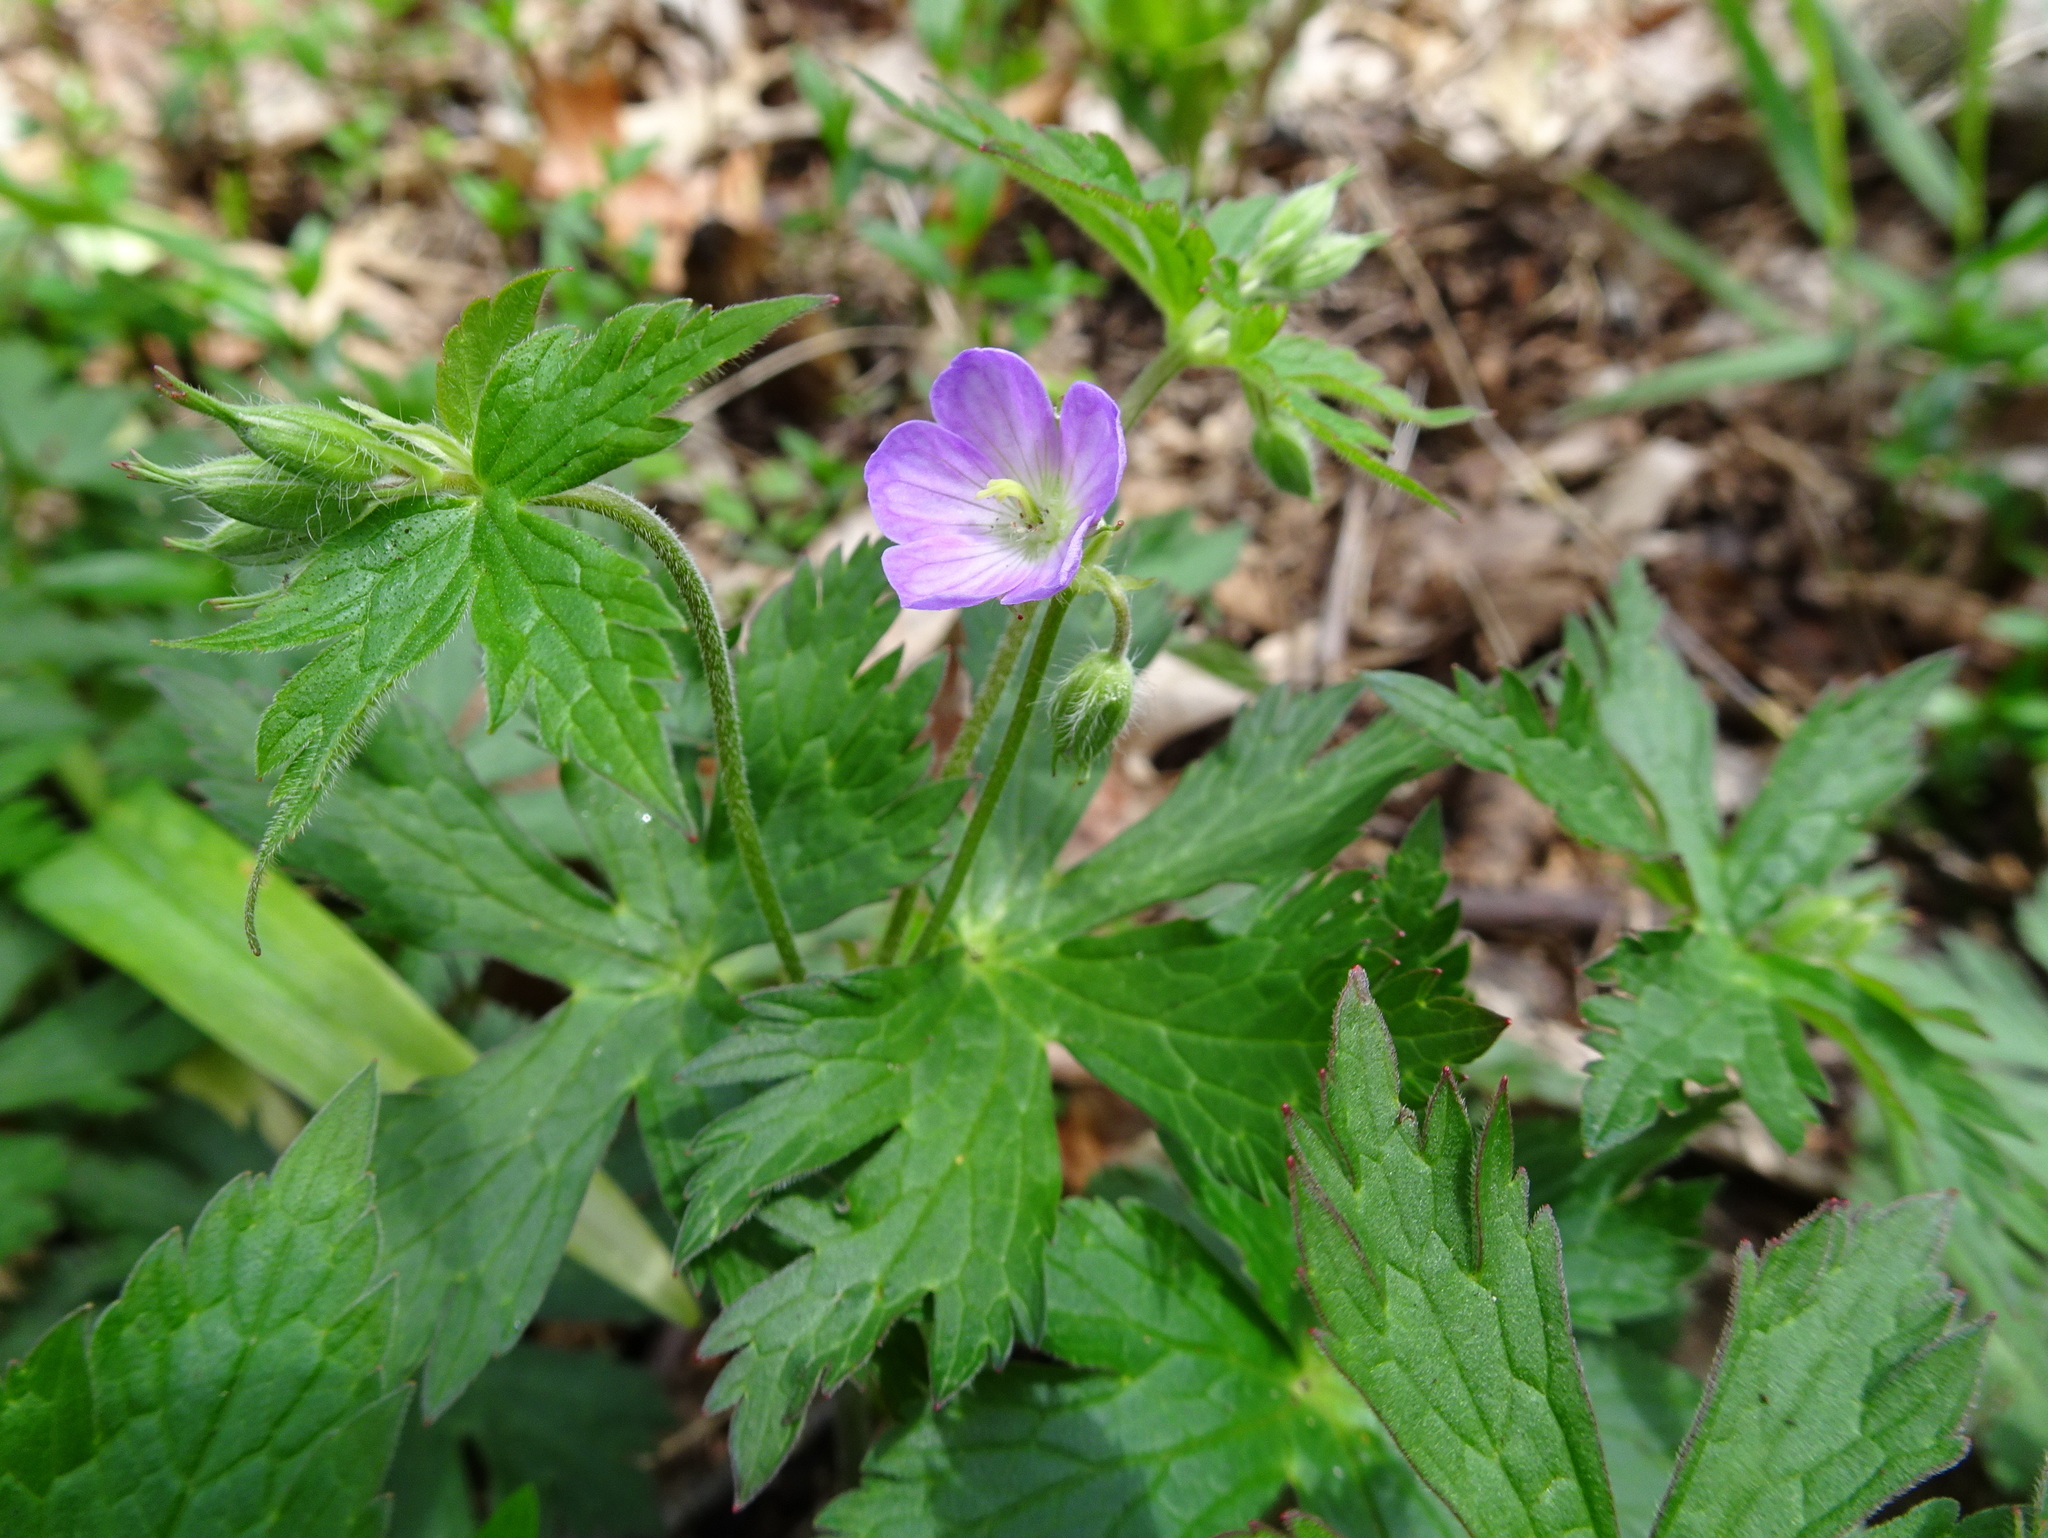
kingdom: Plantae
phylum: Tracheophyta
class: Magnoliopsida
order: Geraniales
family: Geraniaceae
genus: Geranium
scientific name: Geranium maculatum
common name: Spotted geranium
